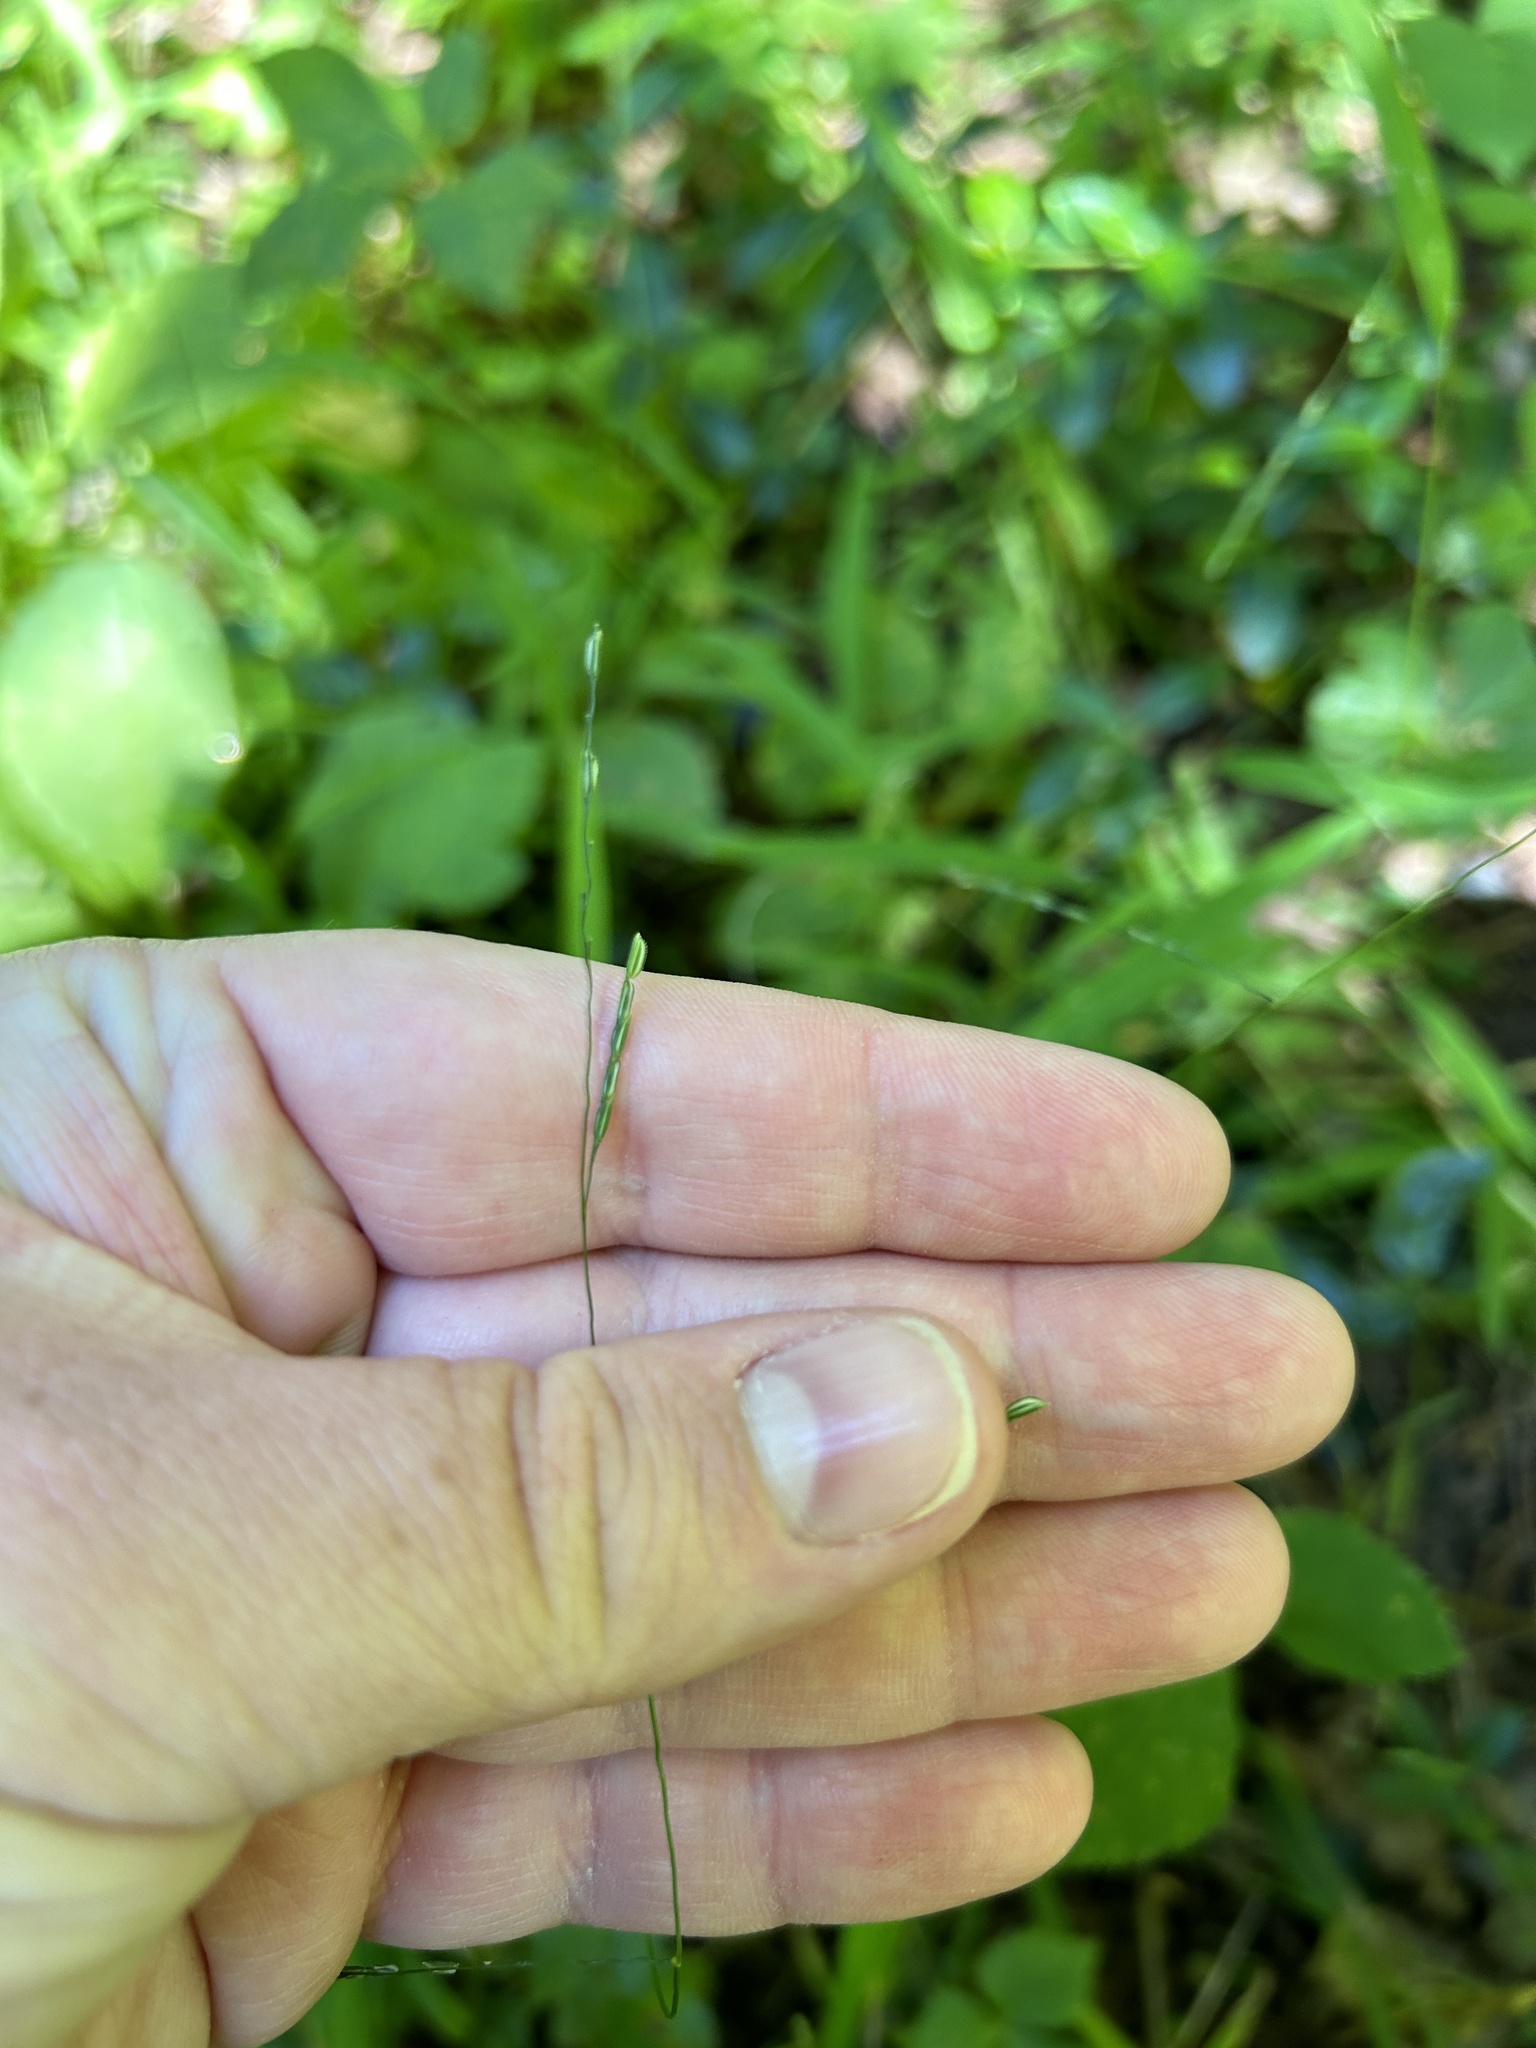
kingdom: Plantae
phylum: Tracheophyta
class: Liliopsida
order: Poales
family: Poaceae
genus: Leersia
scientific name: Leersia virginica
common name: White cutgrass
